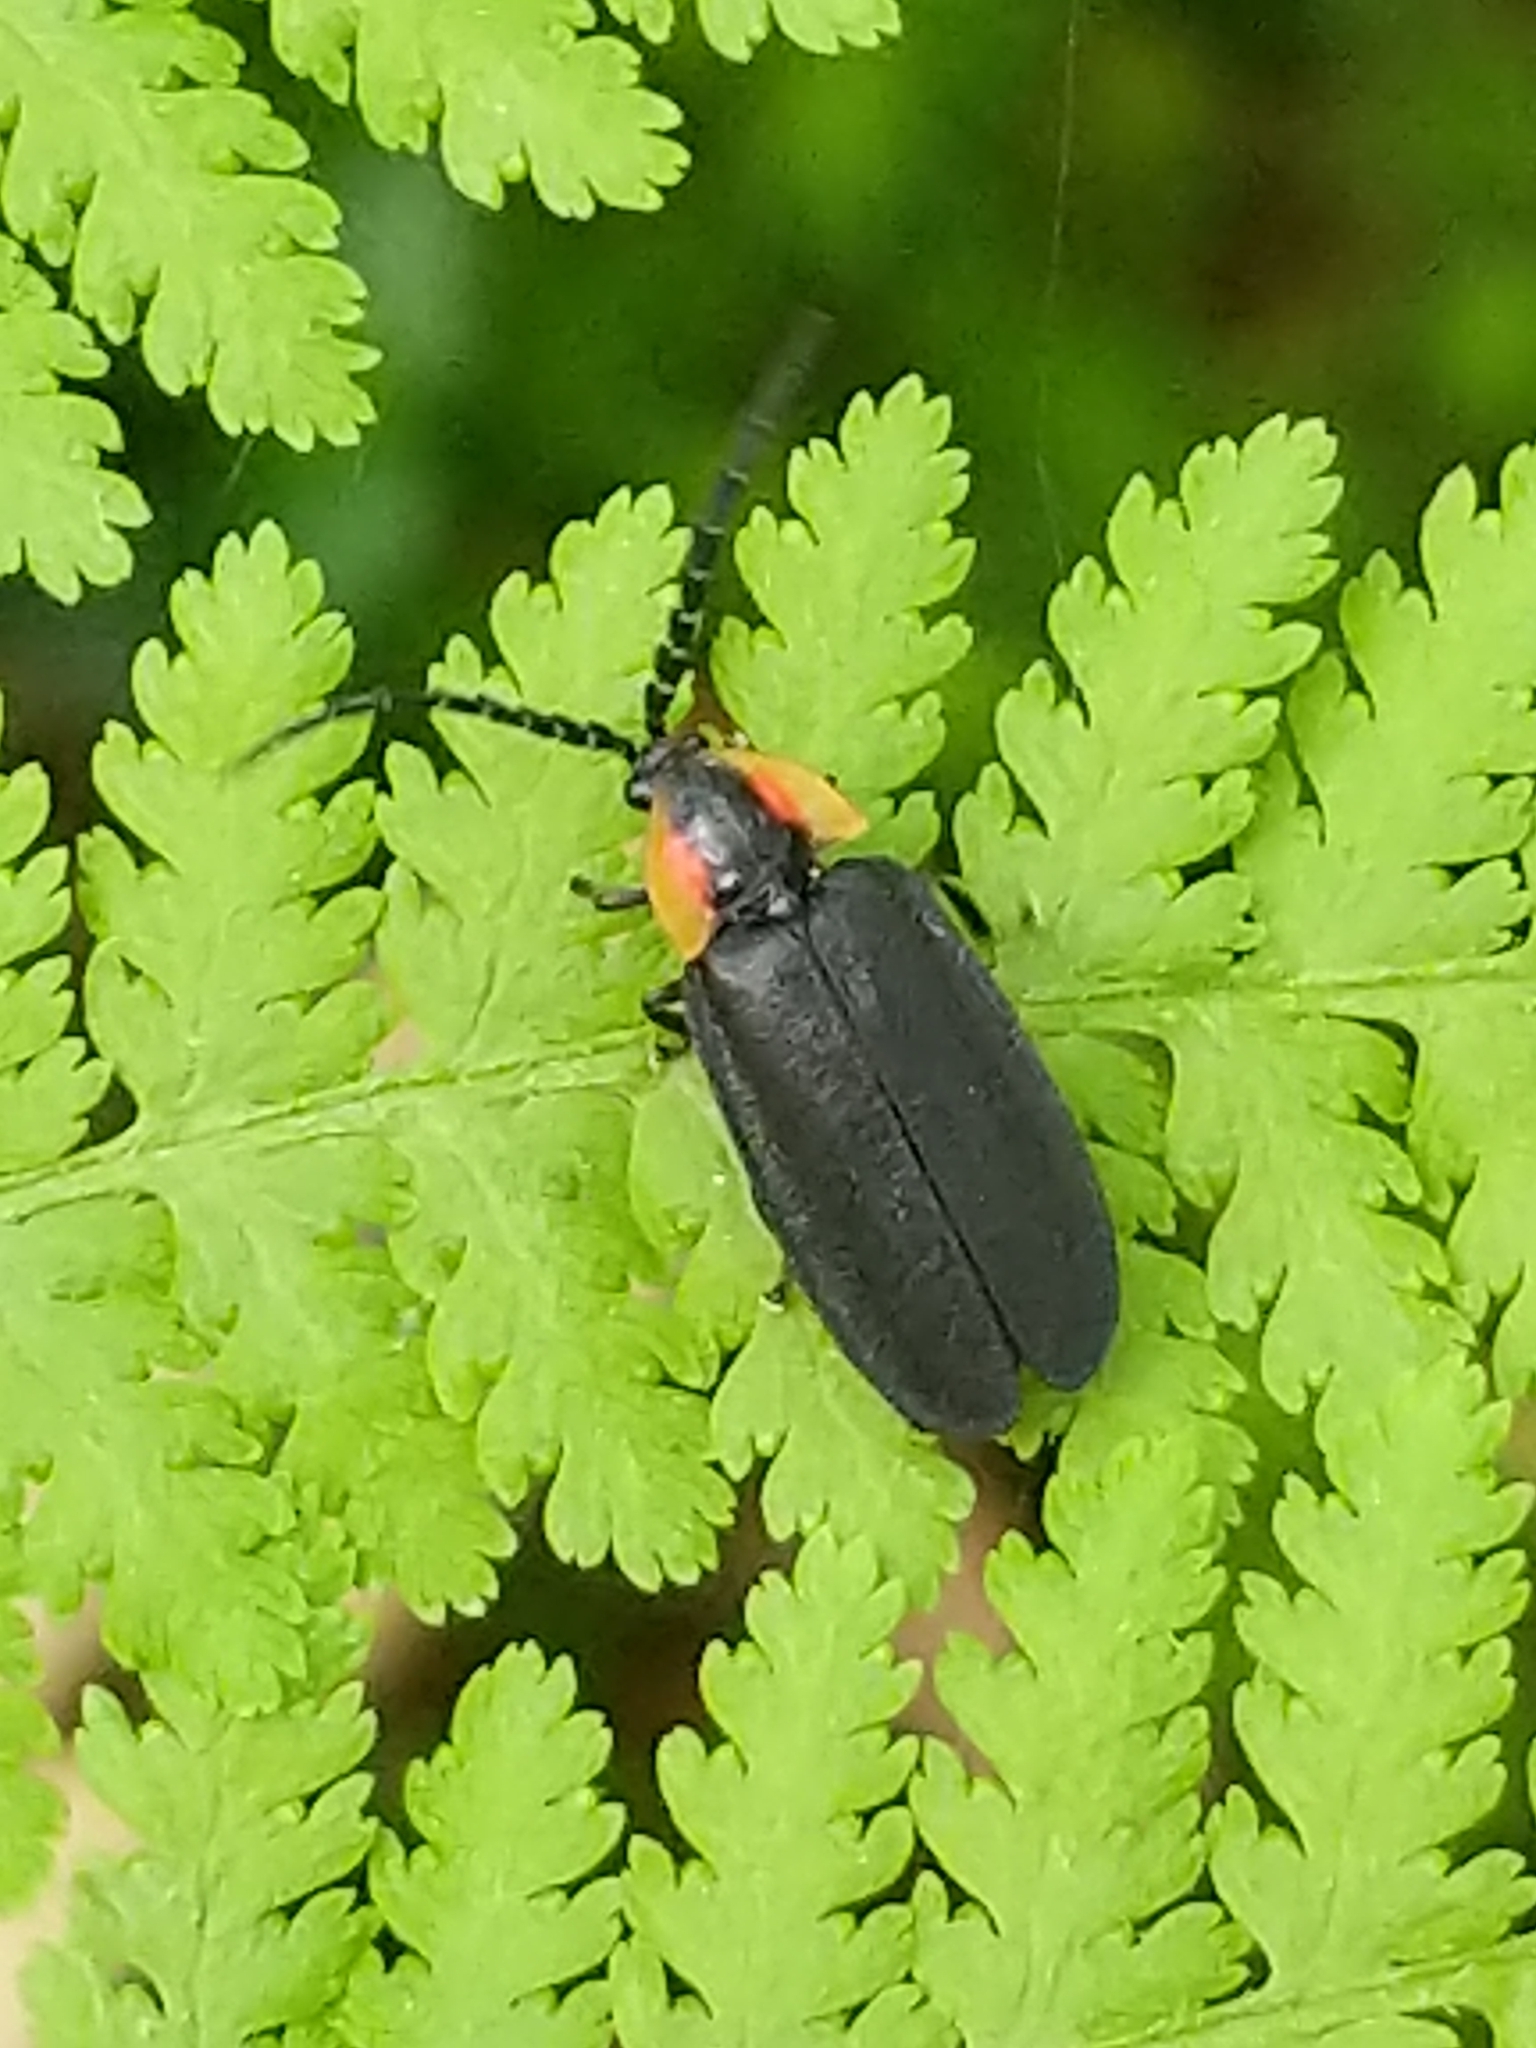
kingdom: Animalia
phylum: Arthropoda
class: Insecta
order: Coleoptera
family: Lampyridae
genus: Lucidota
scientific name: Lucidota atra
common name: Black firefly
